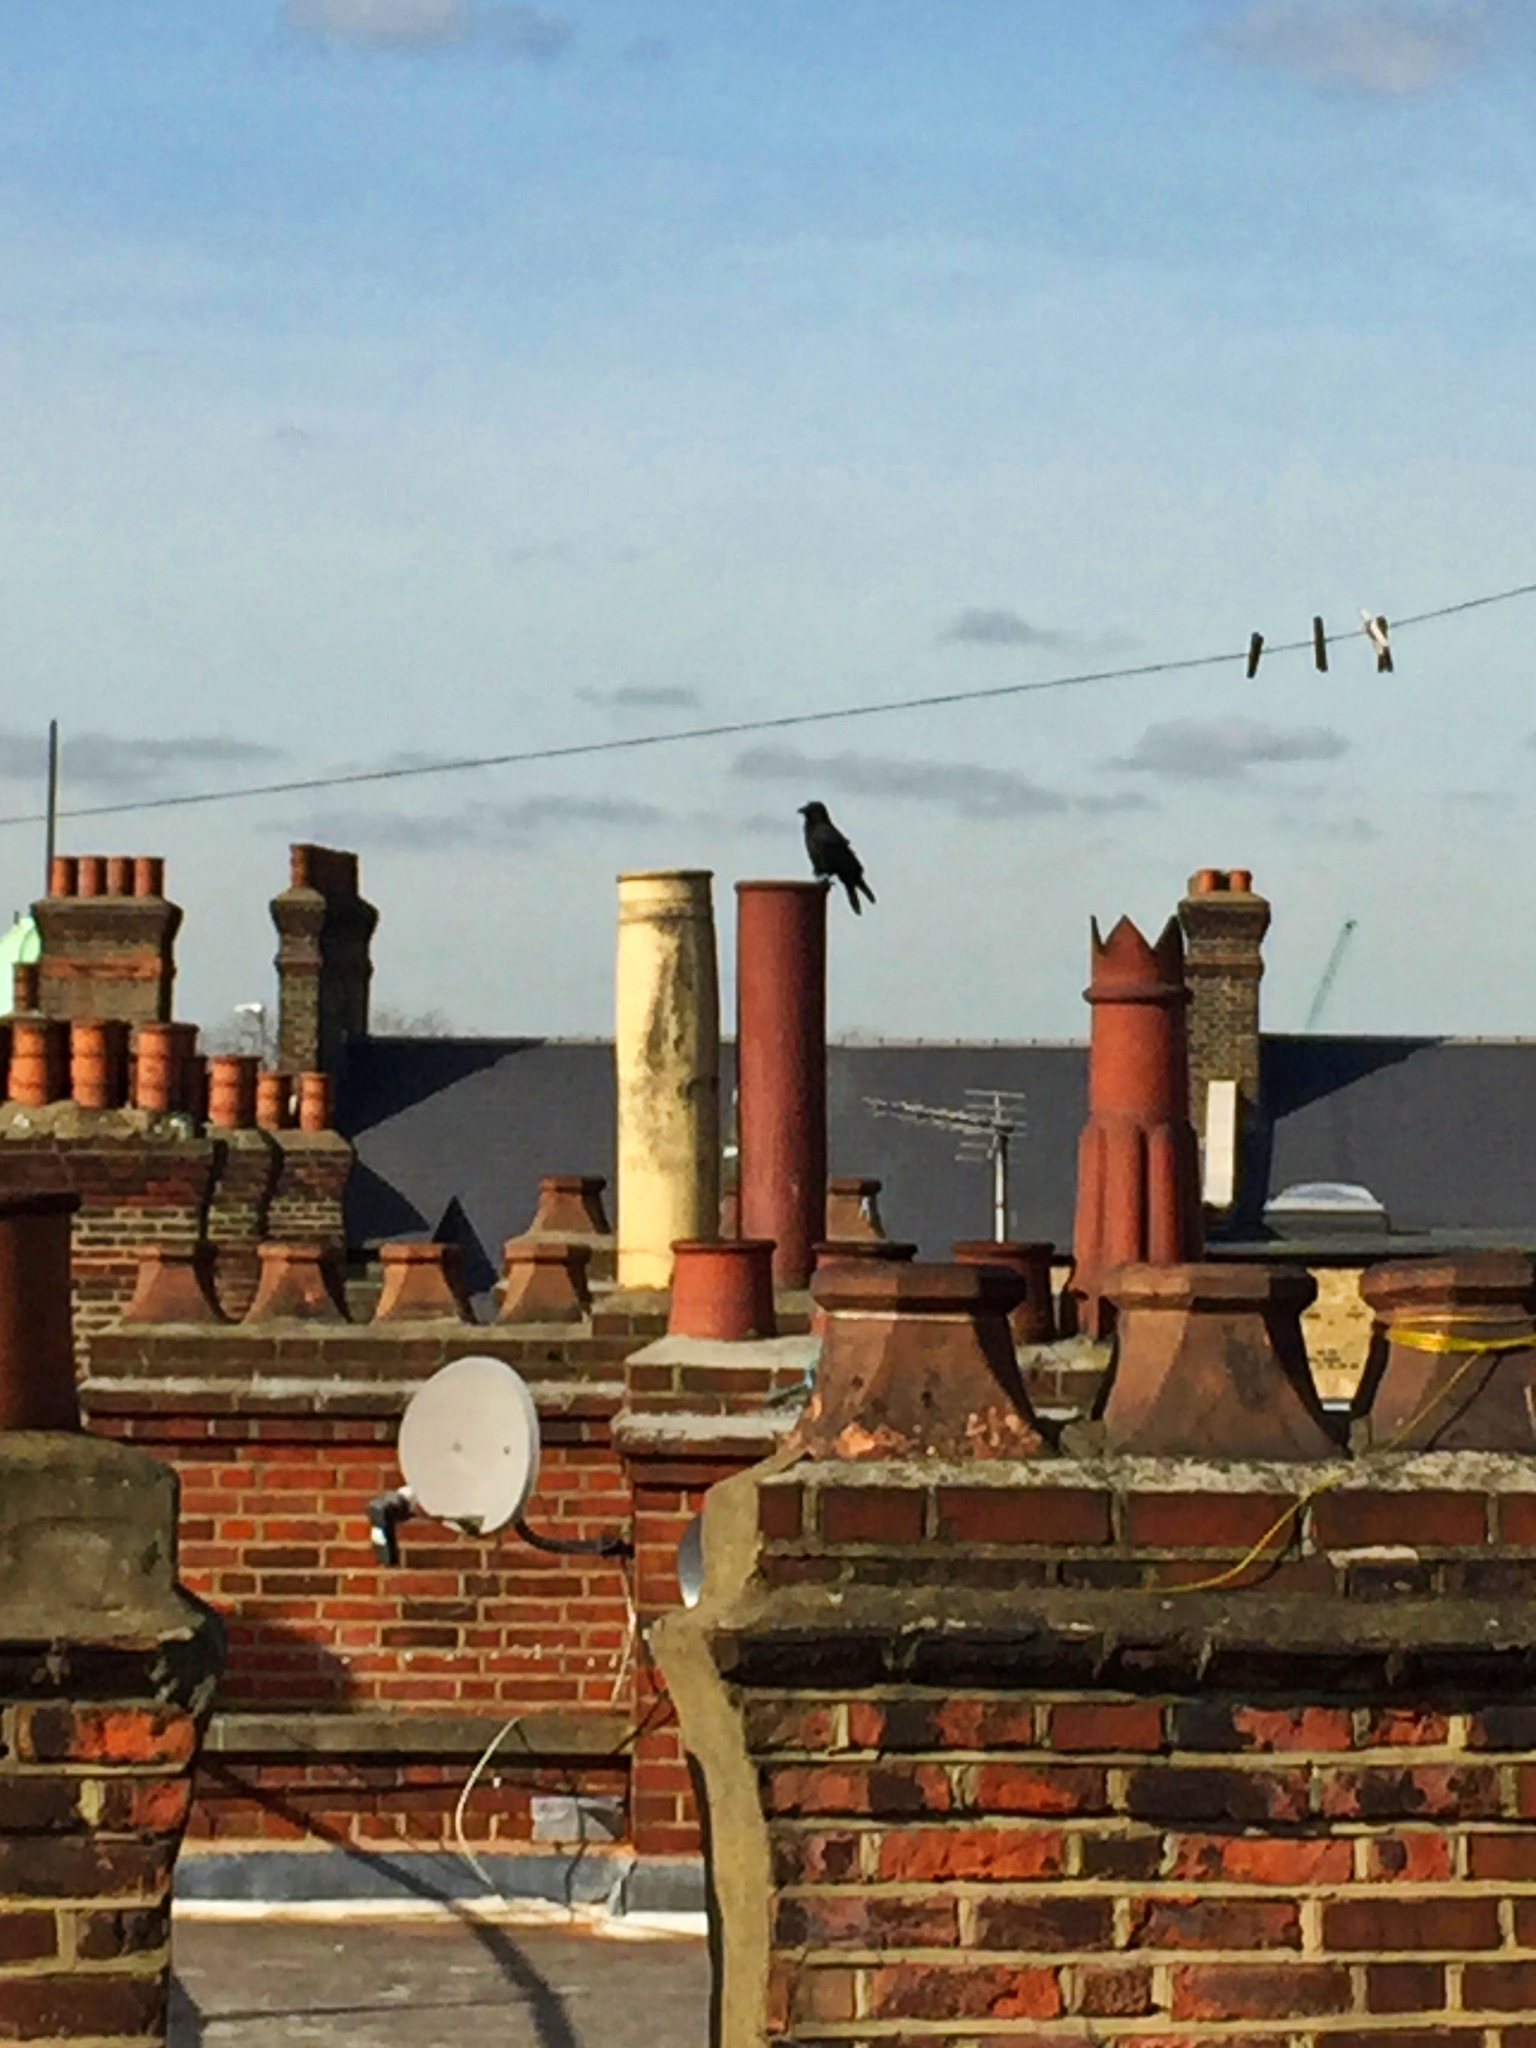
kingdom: Animalia
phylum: Chordata
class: Aves
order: Passeriformes
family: Corvidae
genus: Corvus
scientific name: Corvus corone
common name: Carrion crow
